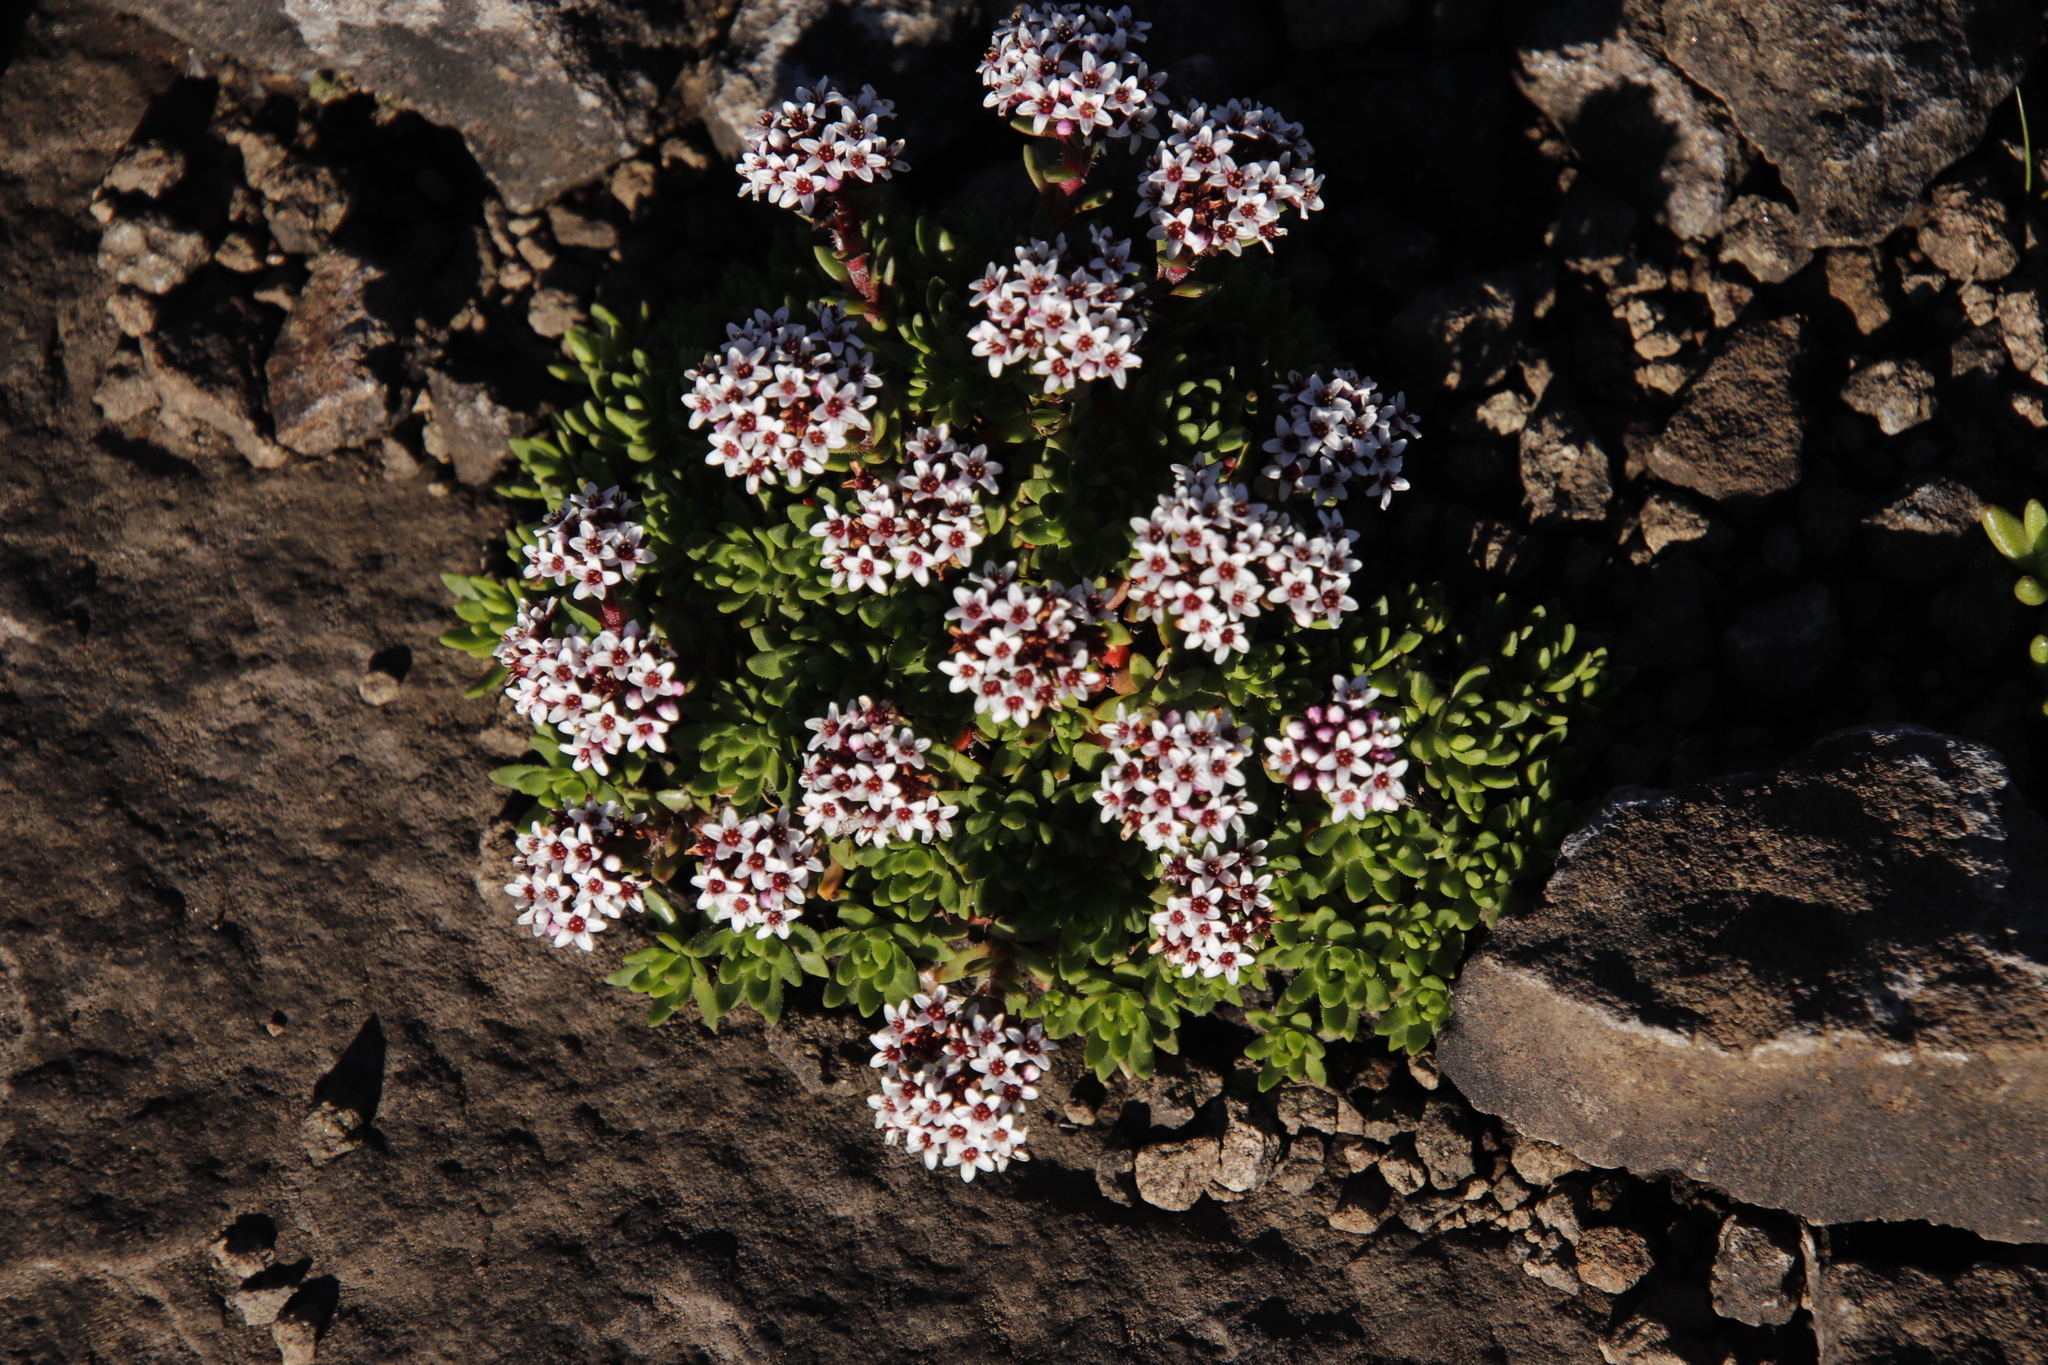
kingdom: Plantae
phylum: Tracheophyta
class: Magnoliopsida
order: Saxifragales
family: Crassulaceae
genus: Crassula
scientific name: Crassula setulosa
